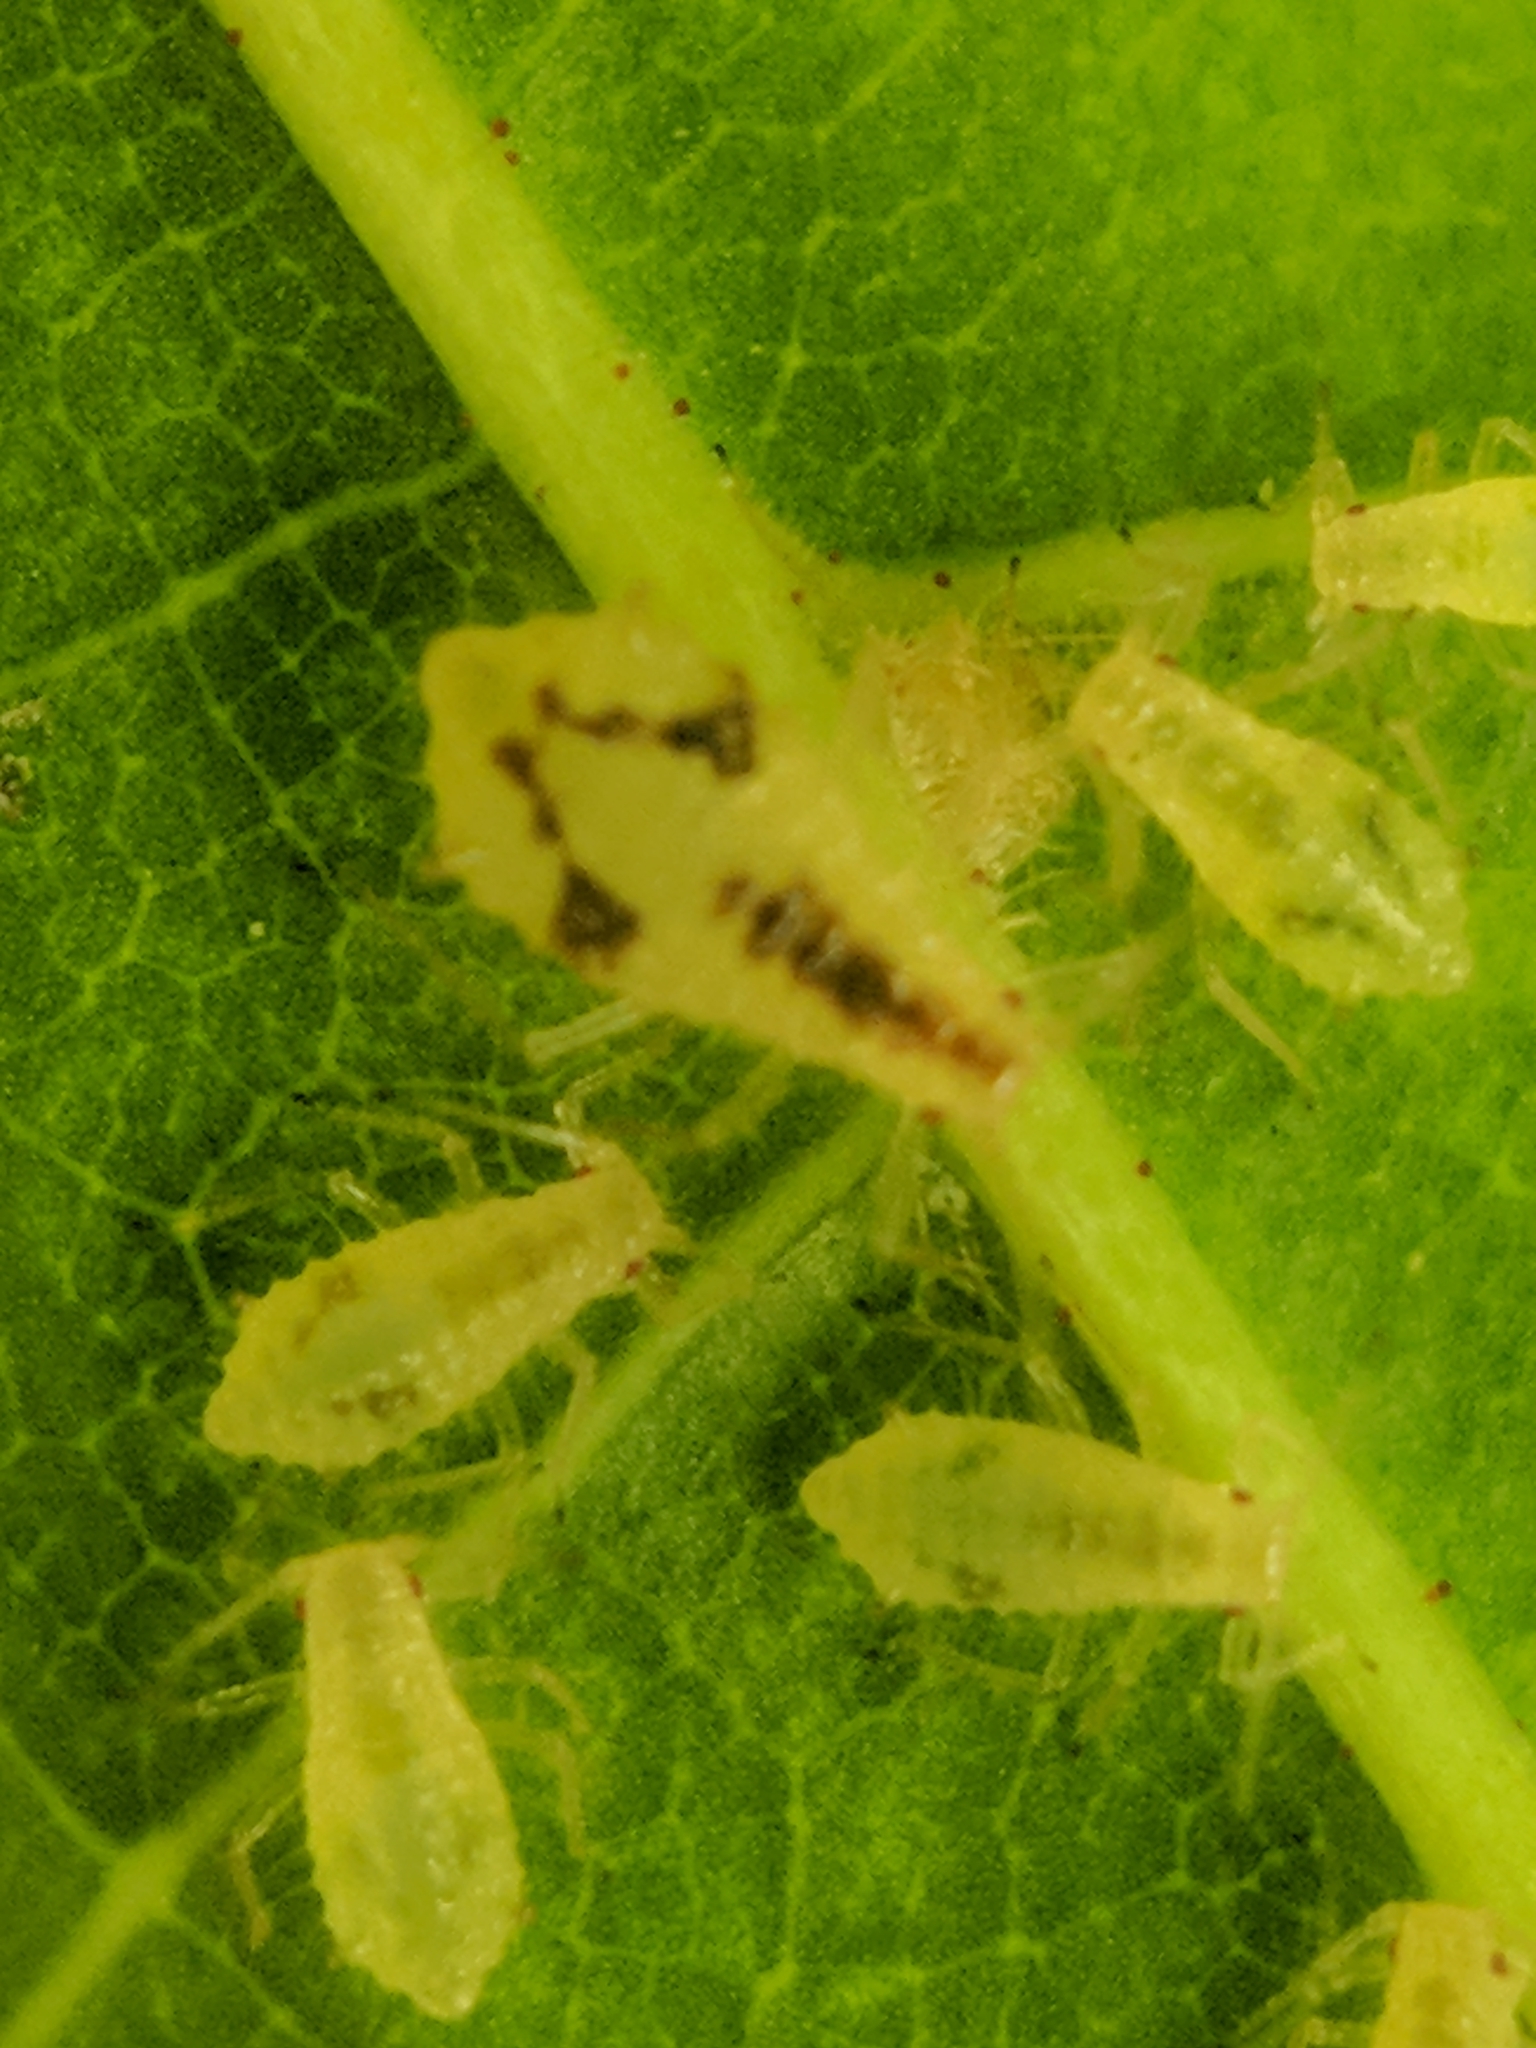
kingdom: Animalia
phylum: Arthropoda
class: Insecta
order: Hemiptera
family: Aphididae
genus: Periphyllus
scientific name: Periphyllus lyropictus
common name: Norway maple aphid
